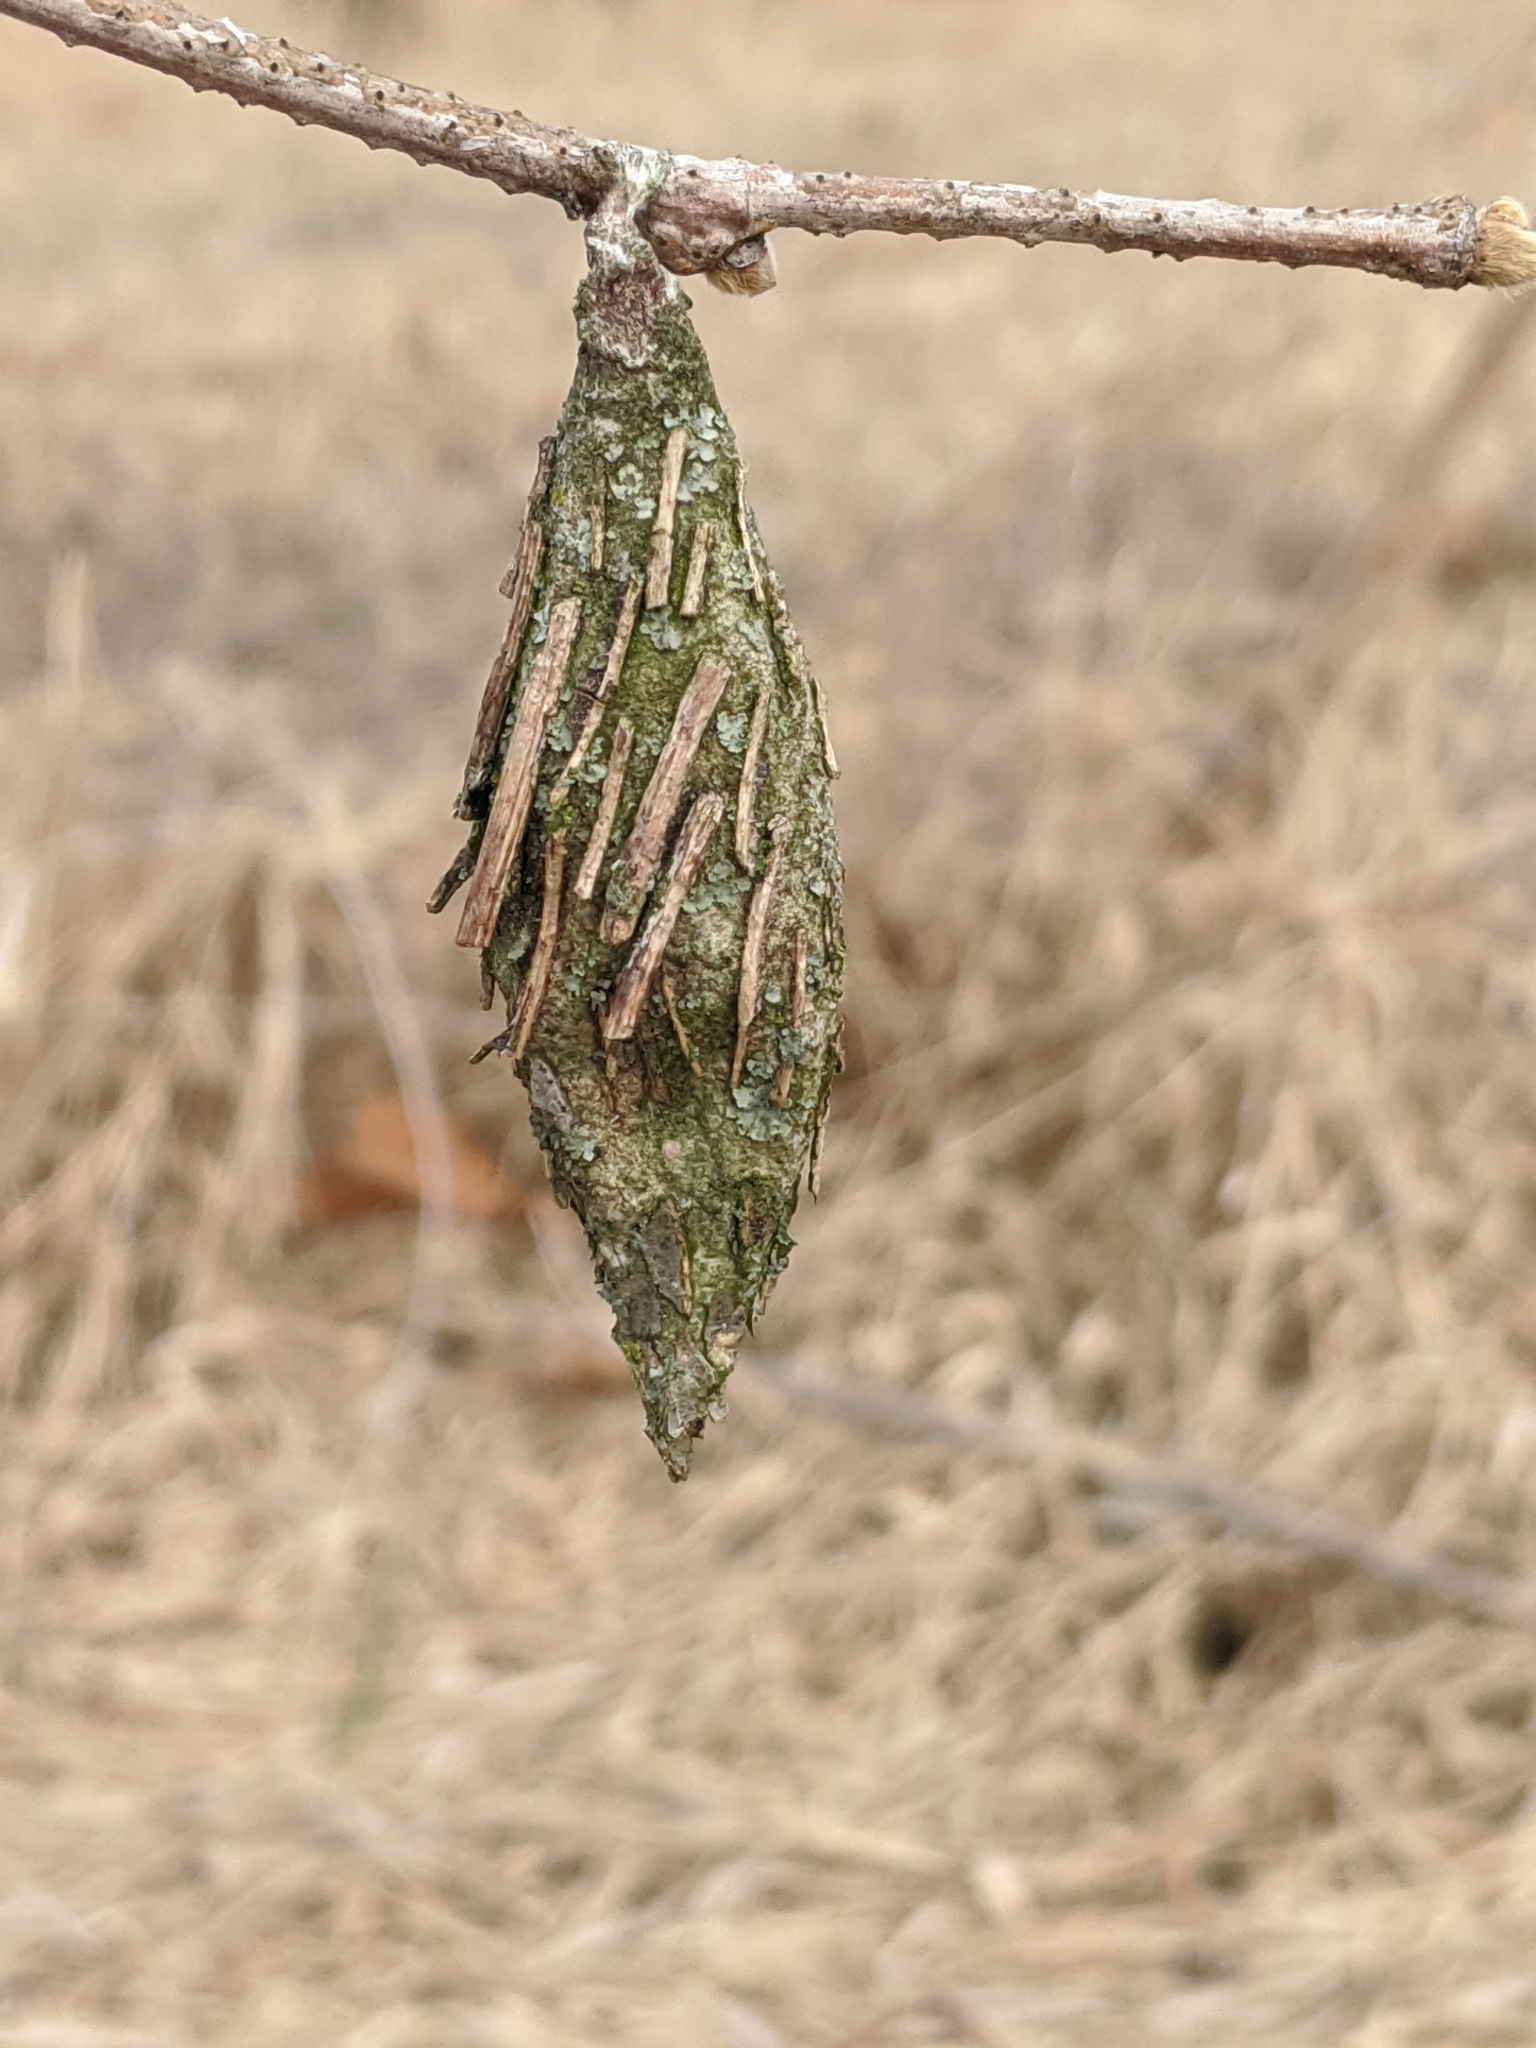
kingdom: Animalia
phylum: Arthropoda
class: Insecta
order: Lepidoptera
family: Psychidae
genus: Thyridopteryx
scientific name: Thyridopteryx ephemeraeformis
